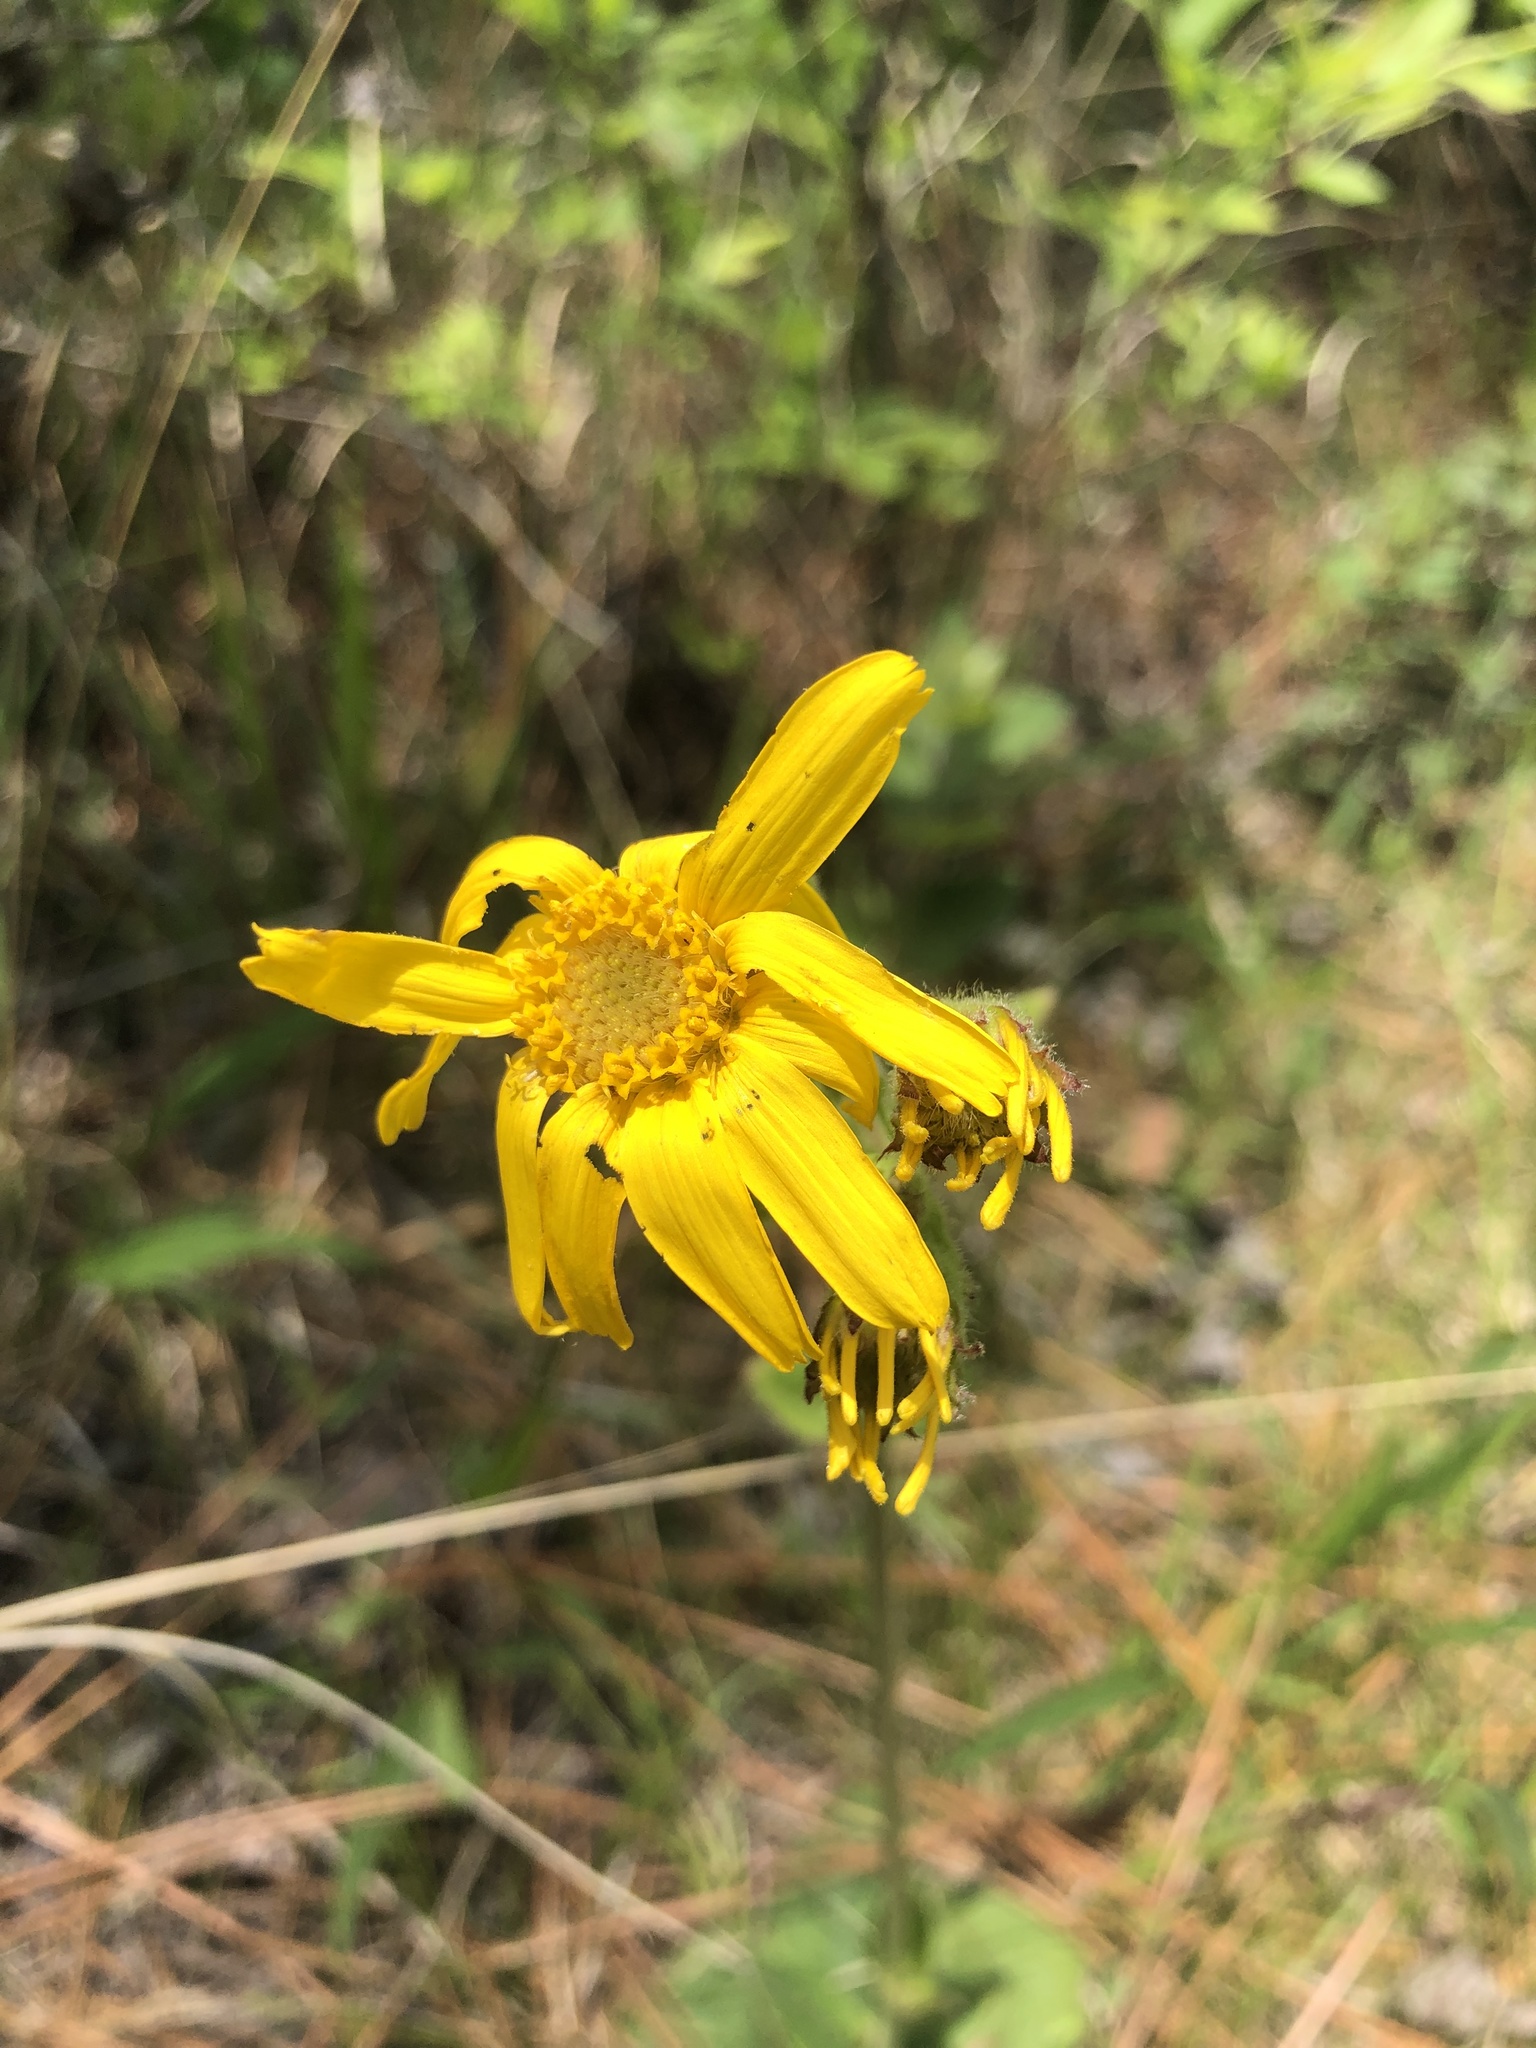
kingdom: Plantae
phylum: Tracheophyta
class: Magnoliopsida
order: Asterales
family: Asteraceae
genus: Arnica
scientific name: Arnica acaulis
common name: Common leopardbane
